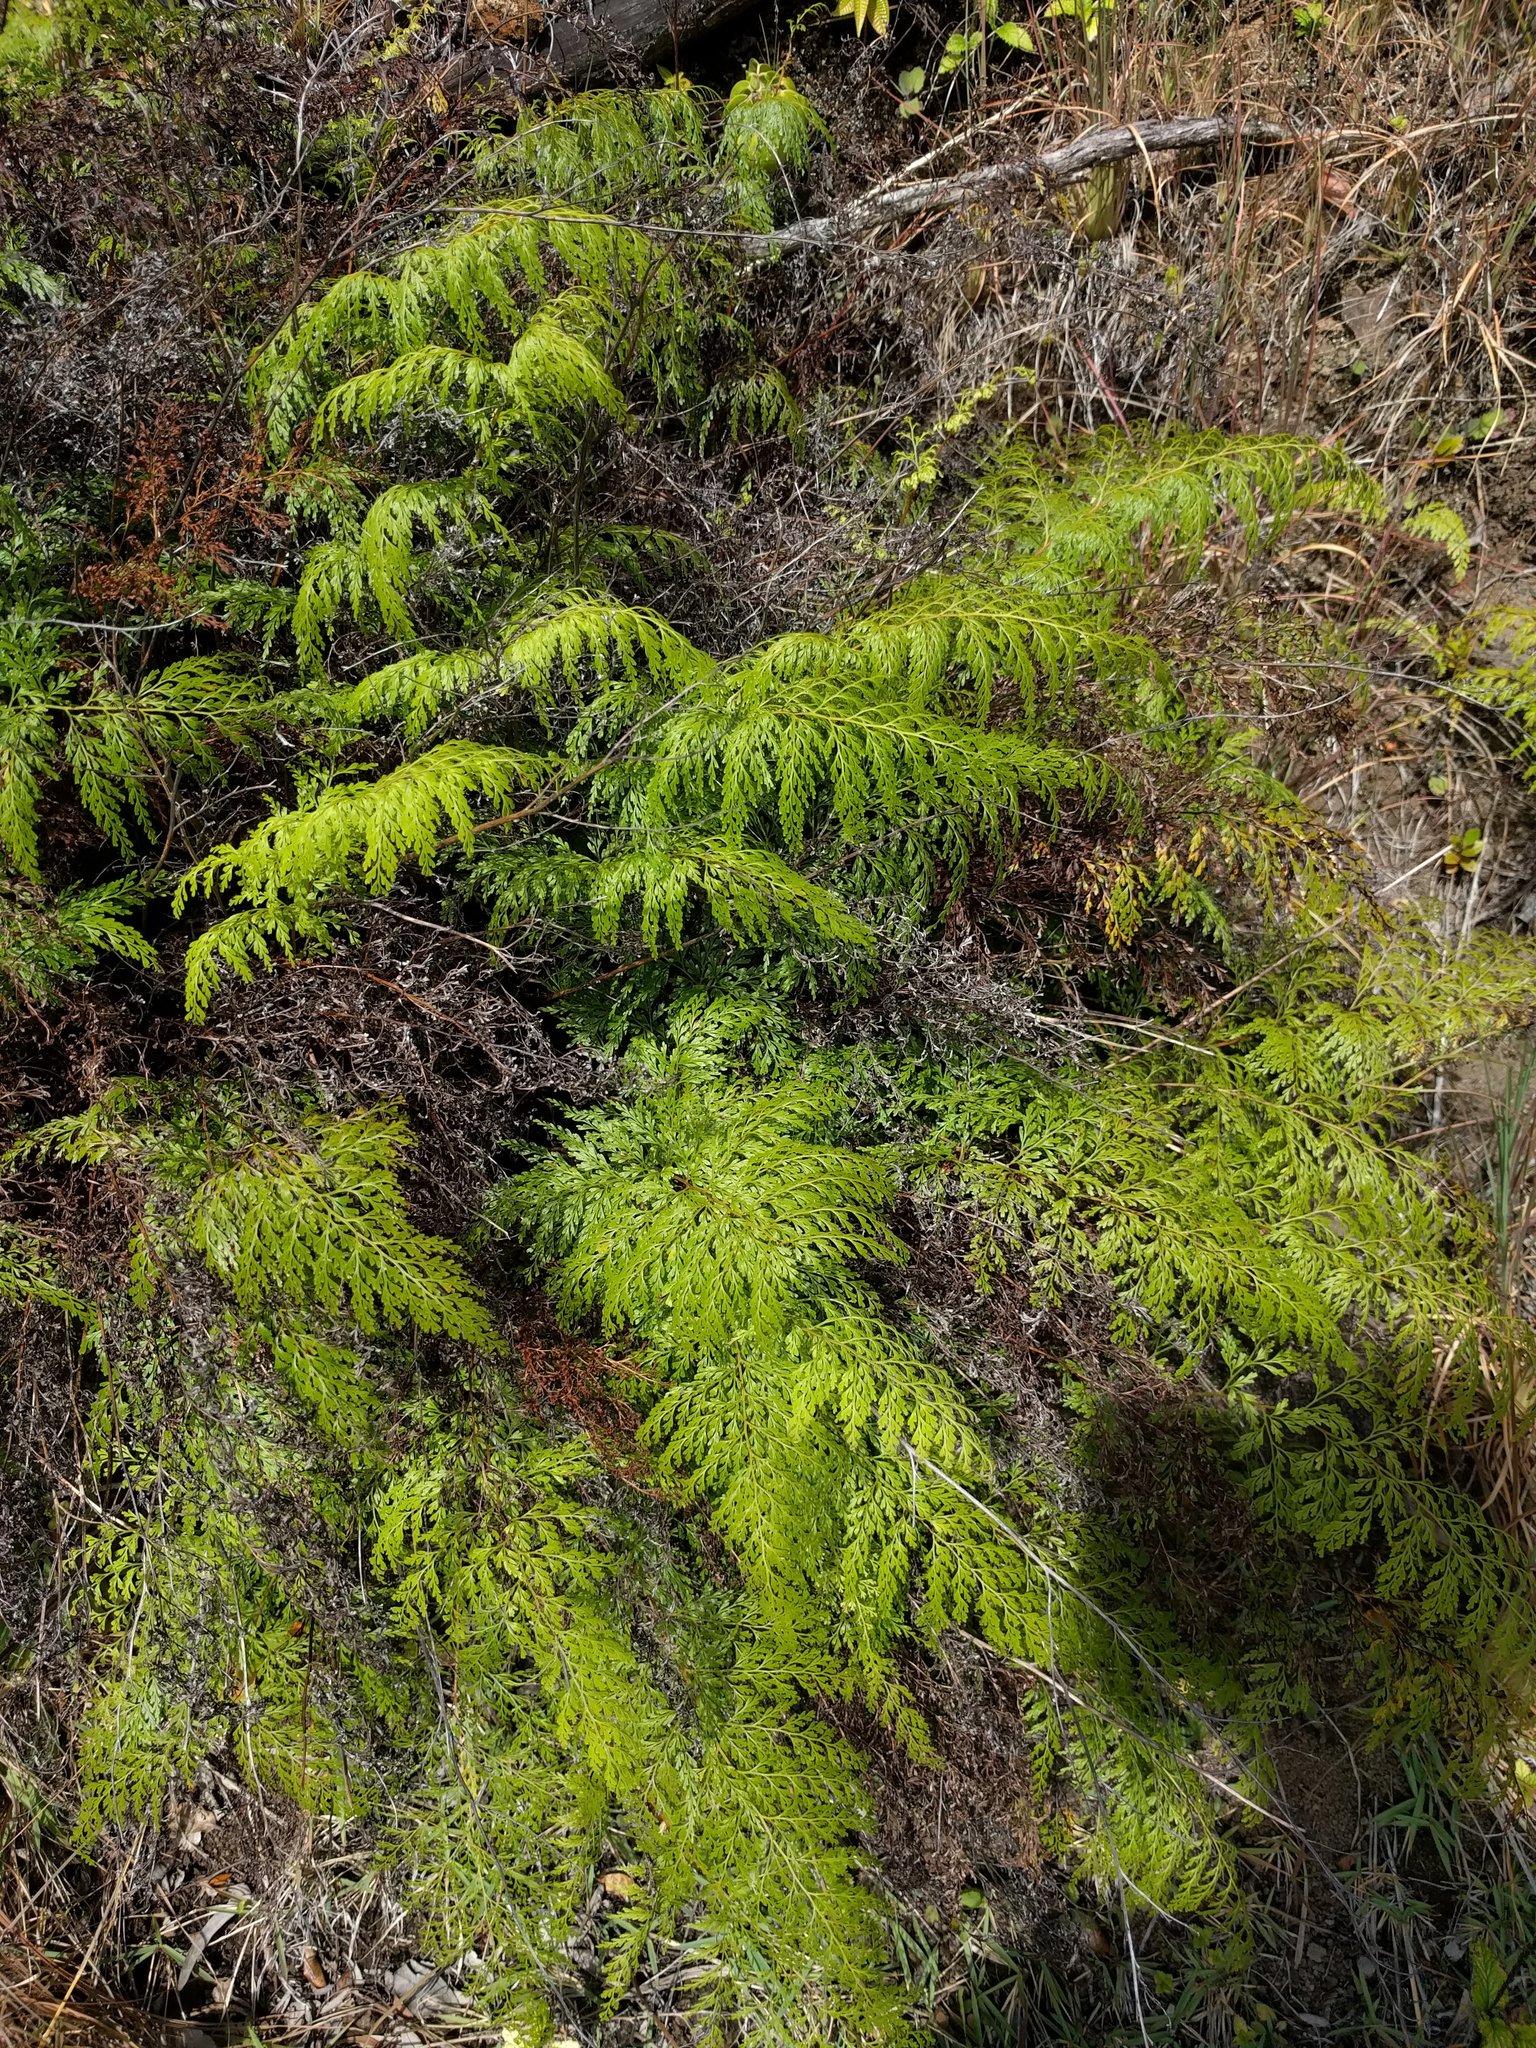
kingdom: Plantae
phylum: Tracheophyta
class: Polypodiopsida
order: Polypodiales
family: Lindsaeaceae
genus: Odontosoria
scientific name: Odontosoria chinensis
